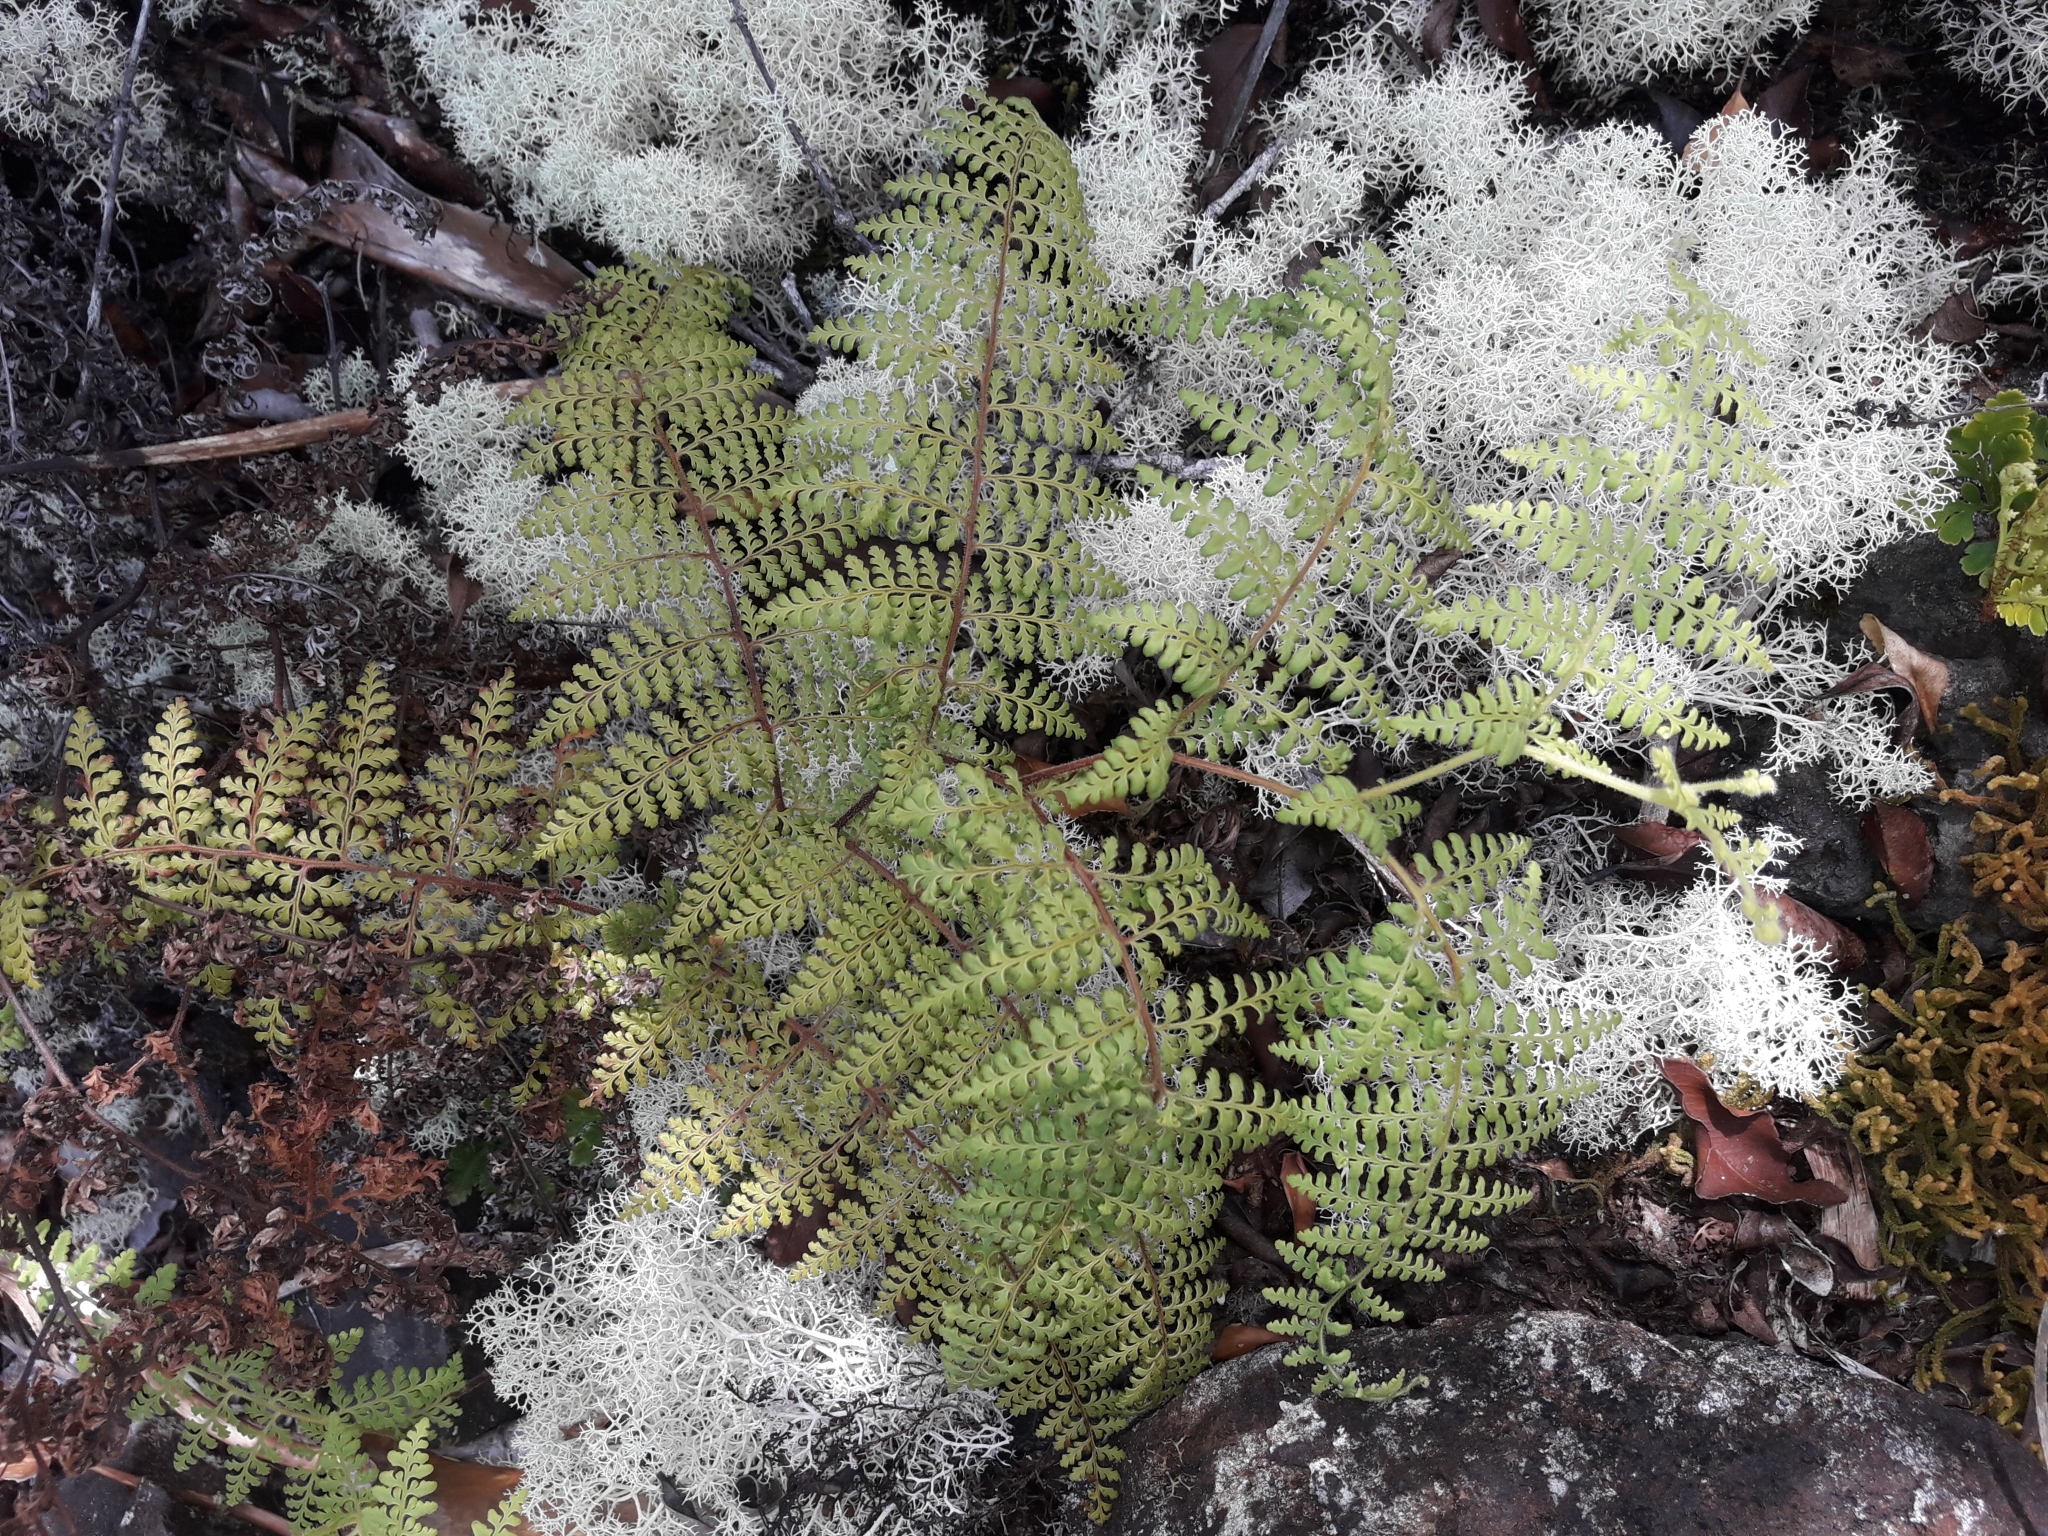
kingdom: Plantae
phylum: Tracheophyta
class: Polypodiopsida
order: Polypodiales
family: Dennstaedtiaceae
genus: Paesia
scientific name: Paesia rugosula
